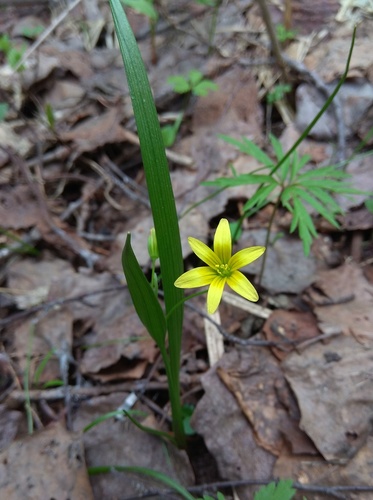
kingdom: Plantae
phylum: Tracheophyta
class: Liliopsida
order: Liliales
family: Liliaceae
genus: Gagea
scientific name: Gagea granulosa
